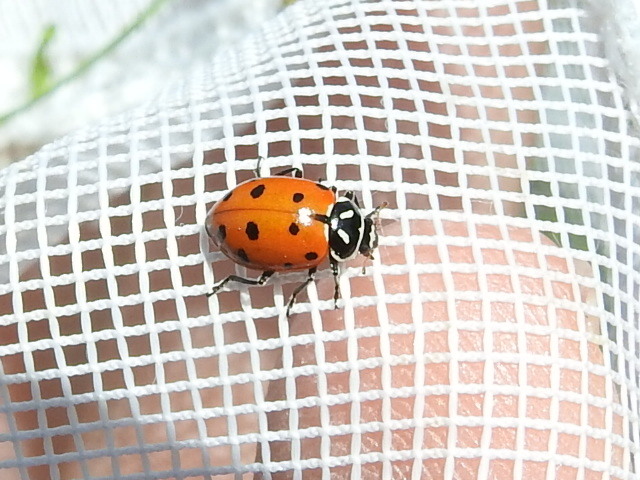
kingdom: Animalia
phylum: Arthropoda
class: Insecta
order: Coleoptera
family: Coccinellidae
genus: Hippodamia
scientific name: Hippodamia convergens
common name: Convergent lady beetle
